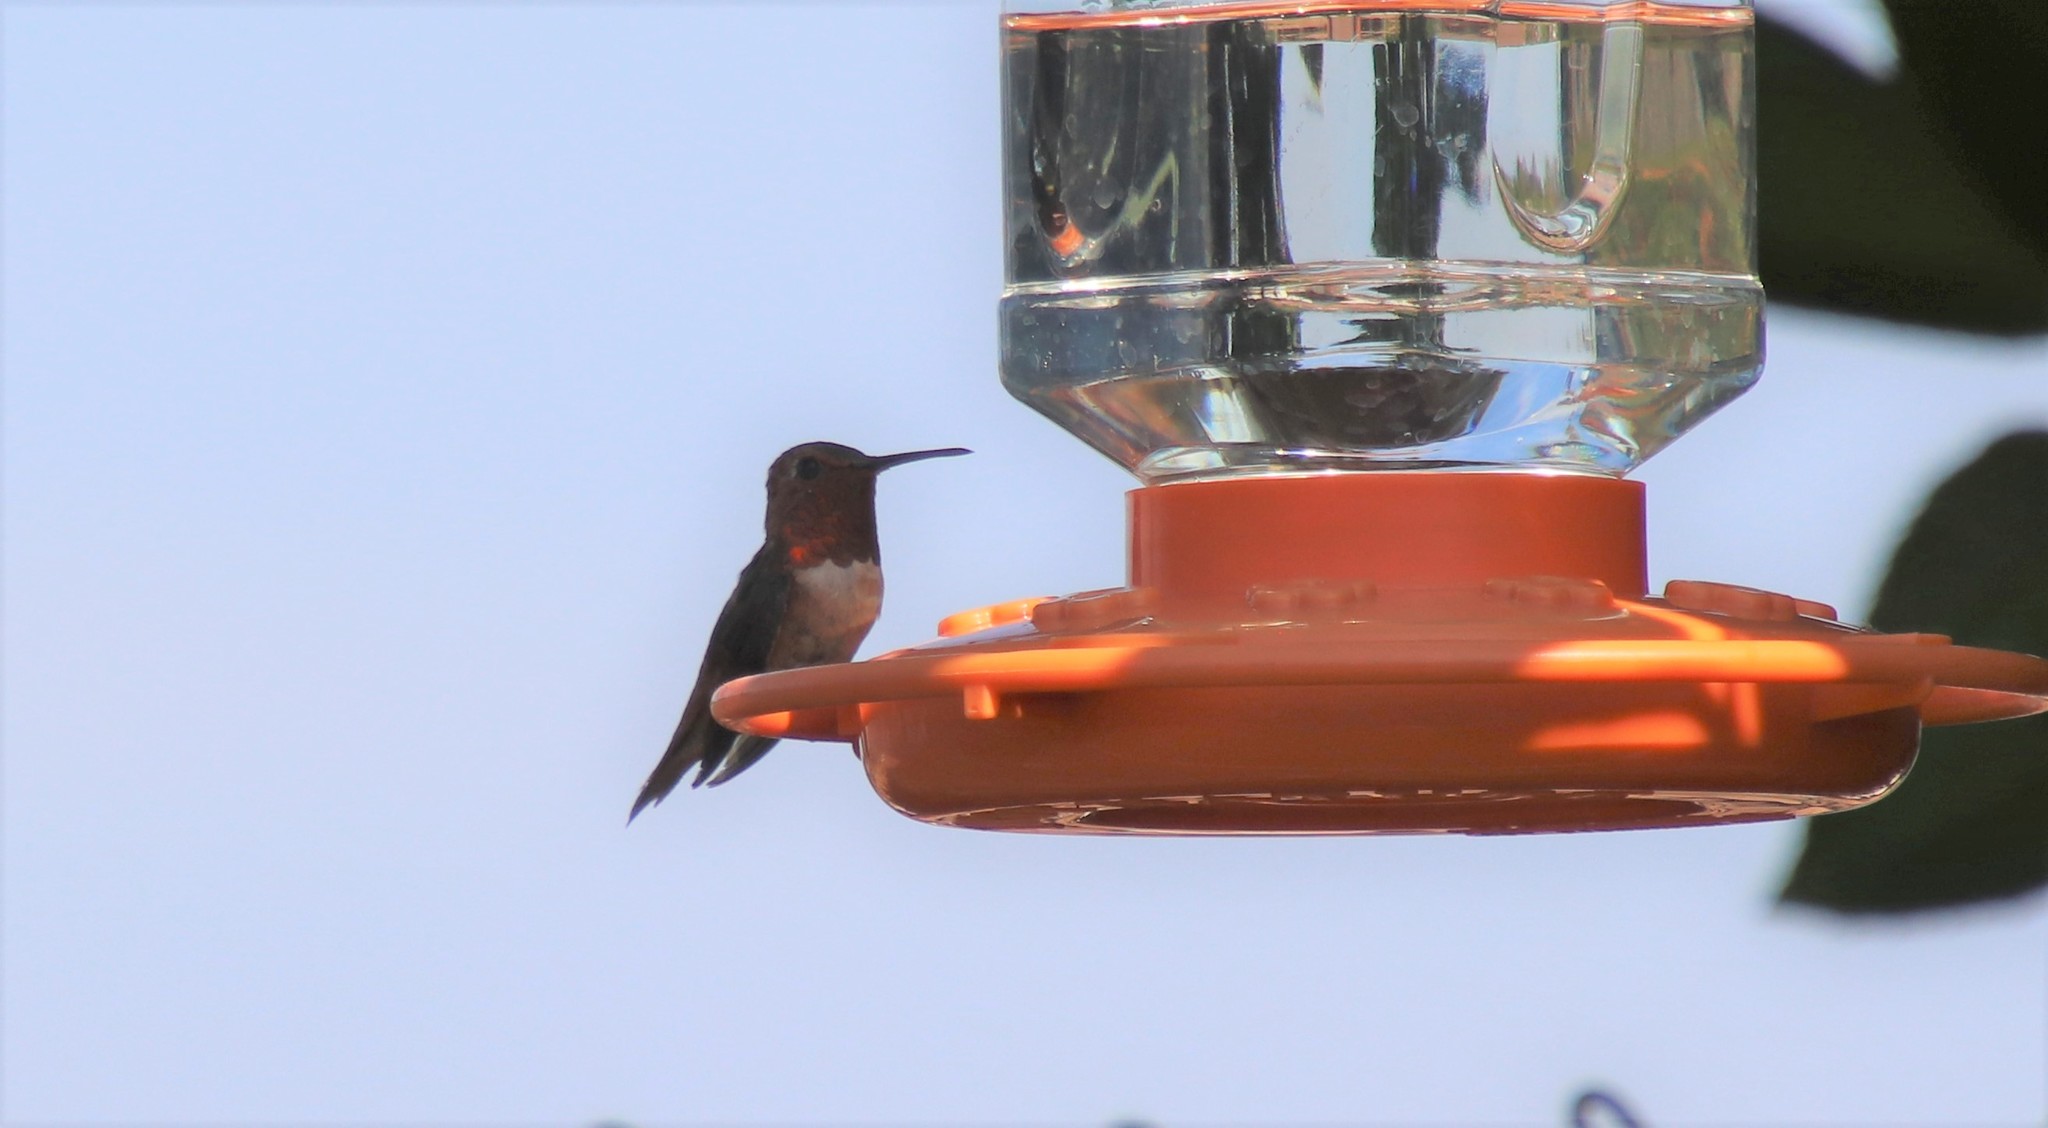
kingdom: Animalia
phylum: Chordata
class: Aves
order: Apodiformes
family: Trochilidae
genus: Selasphorus
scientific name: Selasphorus
